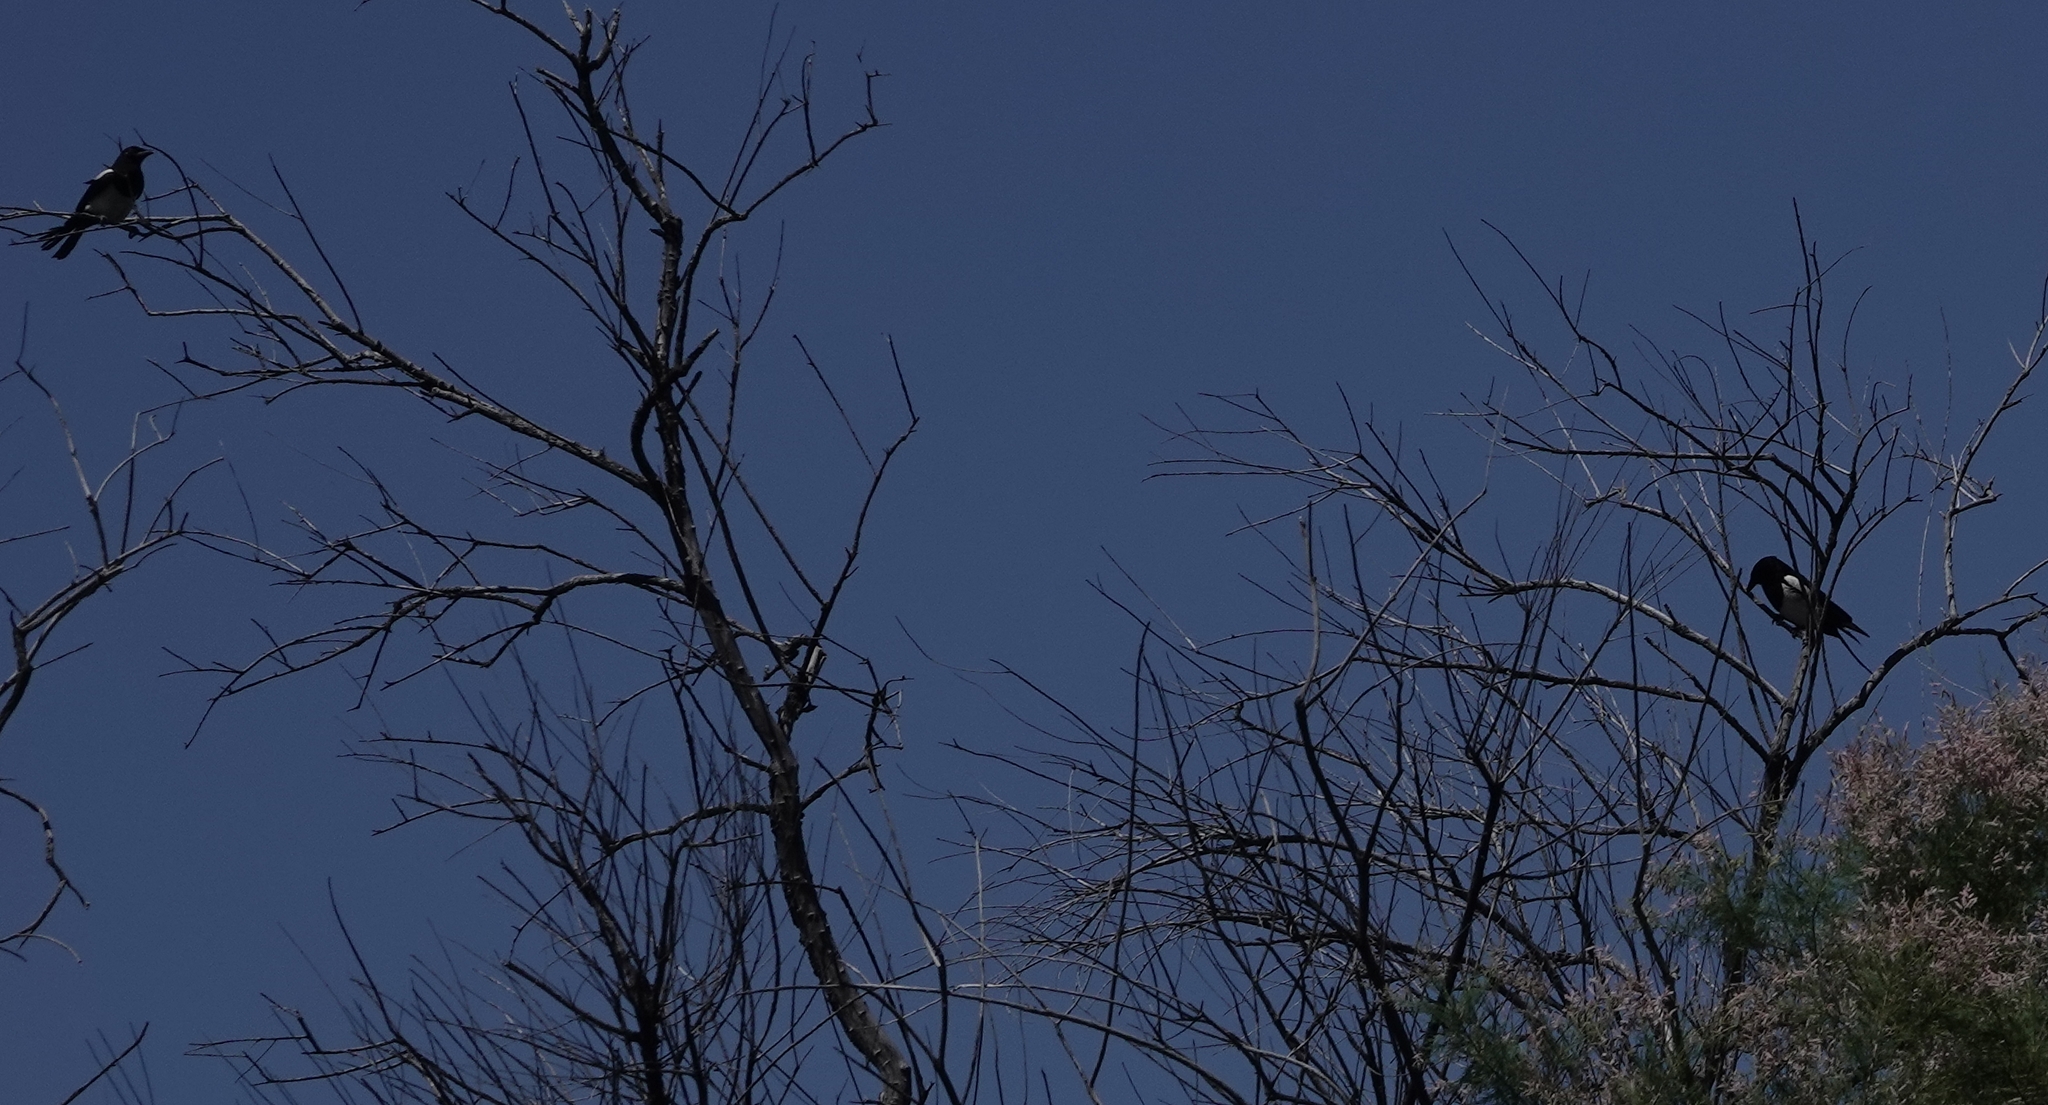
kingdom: Animalia
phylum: Chordata
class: Aves
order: Passeriformes
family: Corvidae
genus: Pica
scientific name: Pica hudsonia
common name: Black-billed magpie
